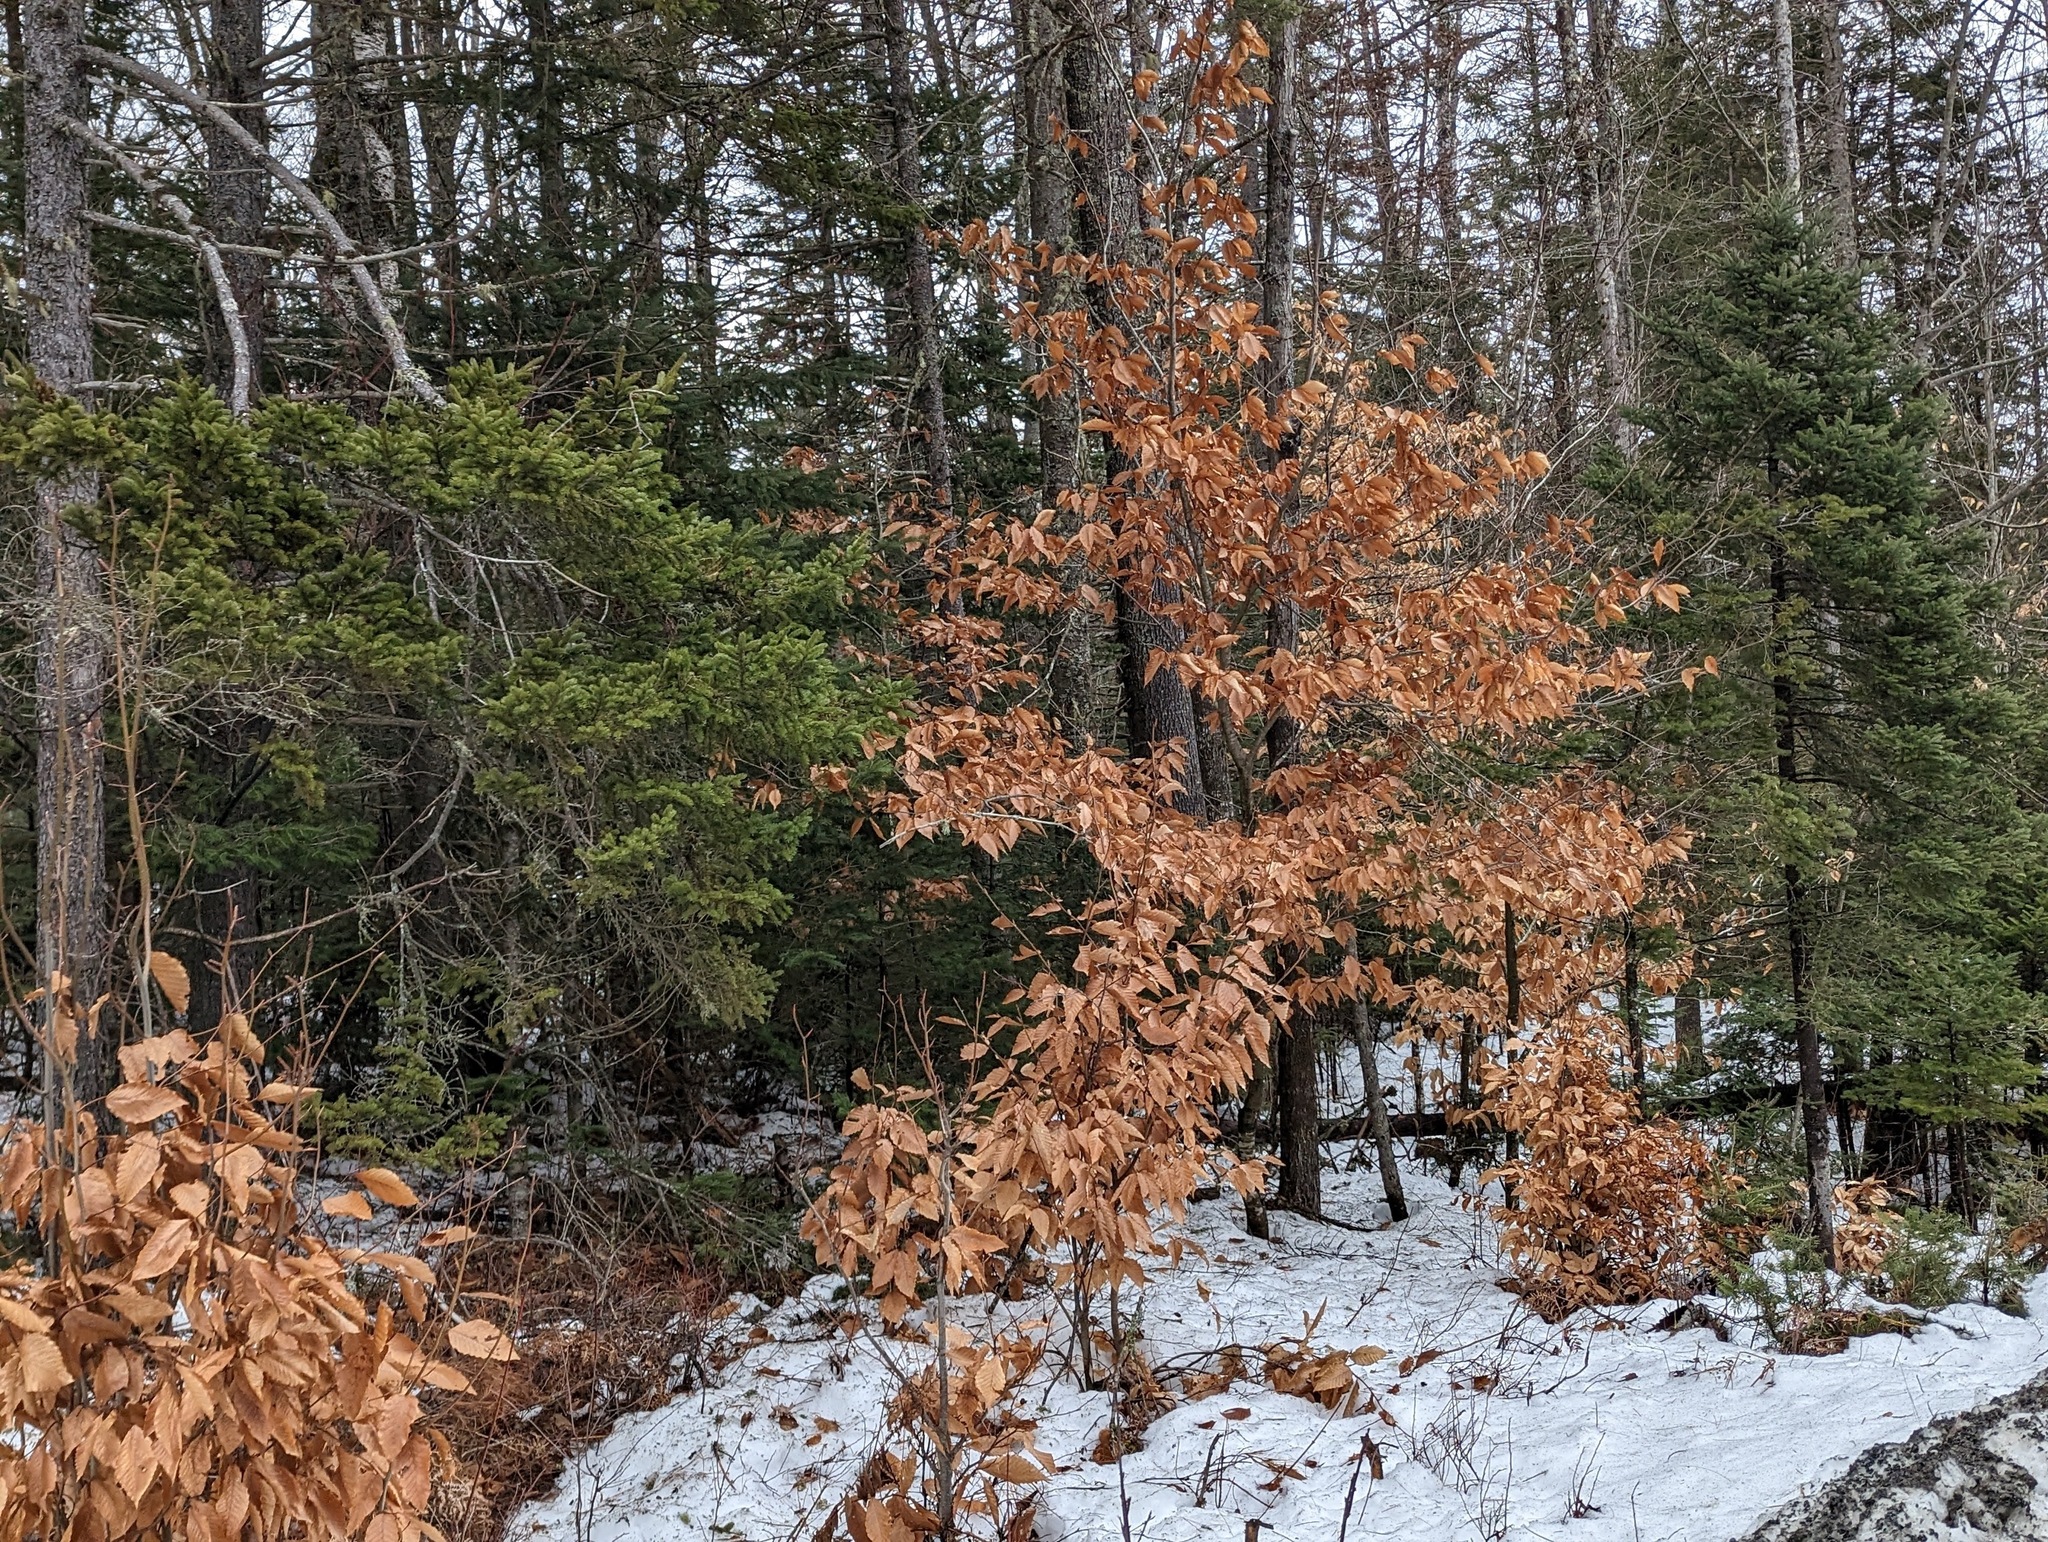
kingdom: Plantae
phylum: Tracheophyta
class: Magnoliopsida
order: Fagales
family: Fagaceae
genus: Fagus
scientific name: Fagus grandifolia
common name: American beech
